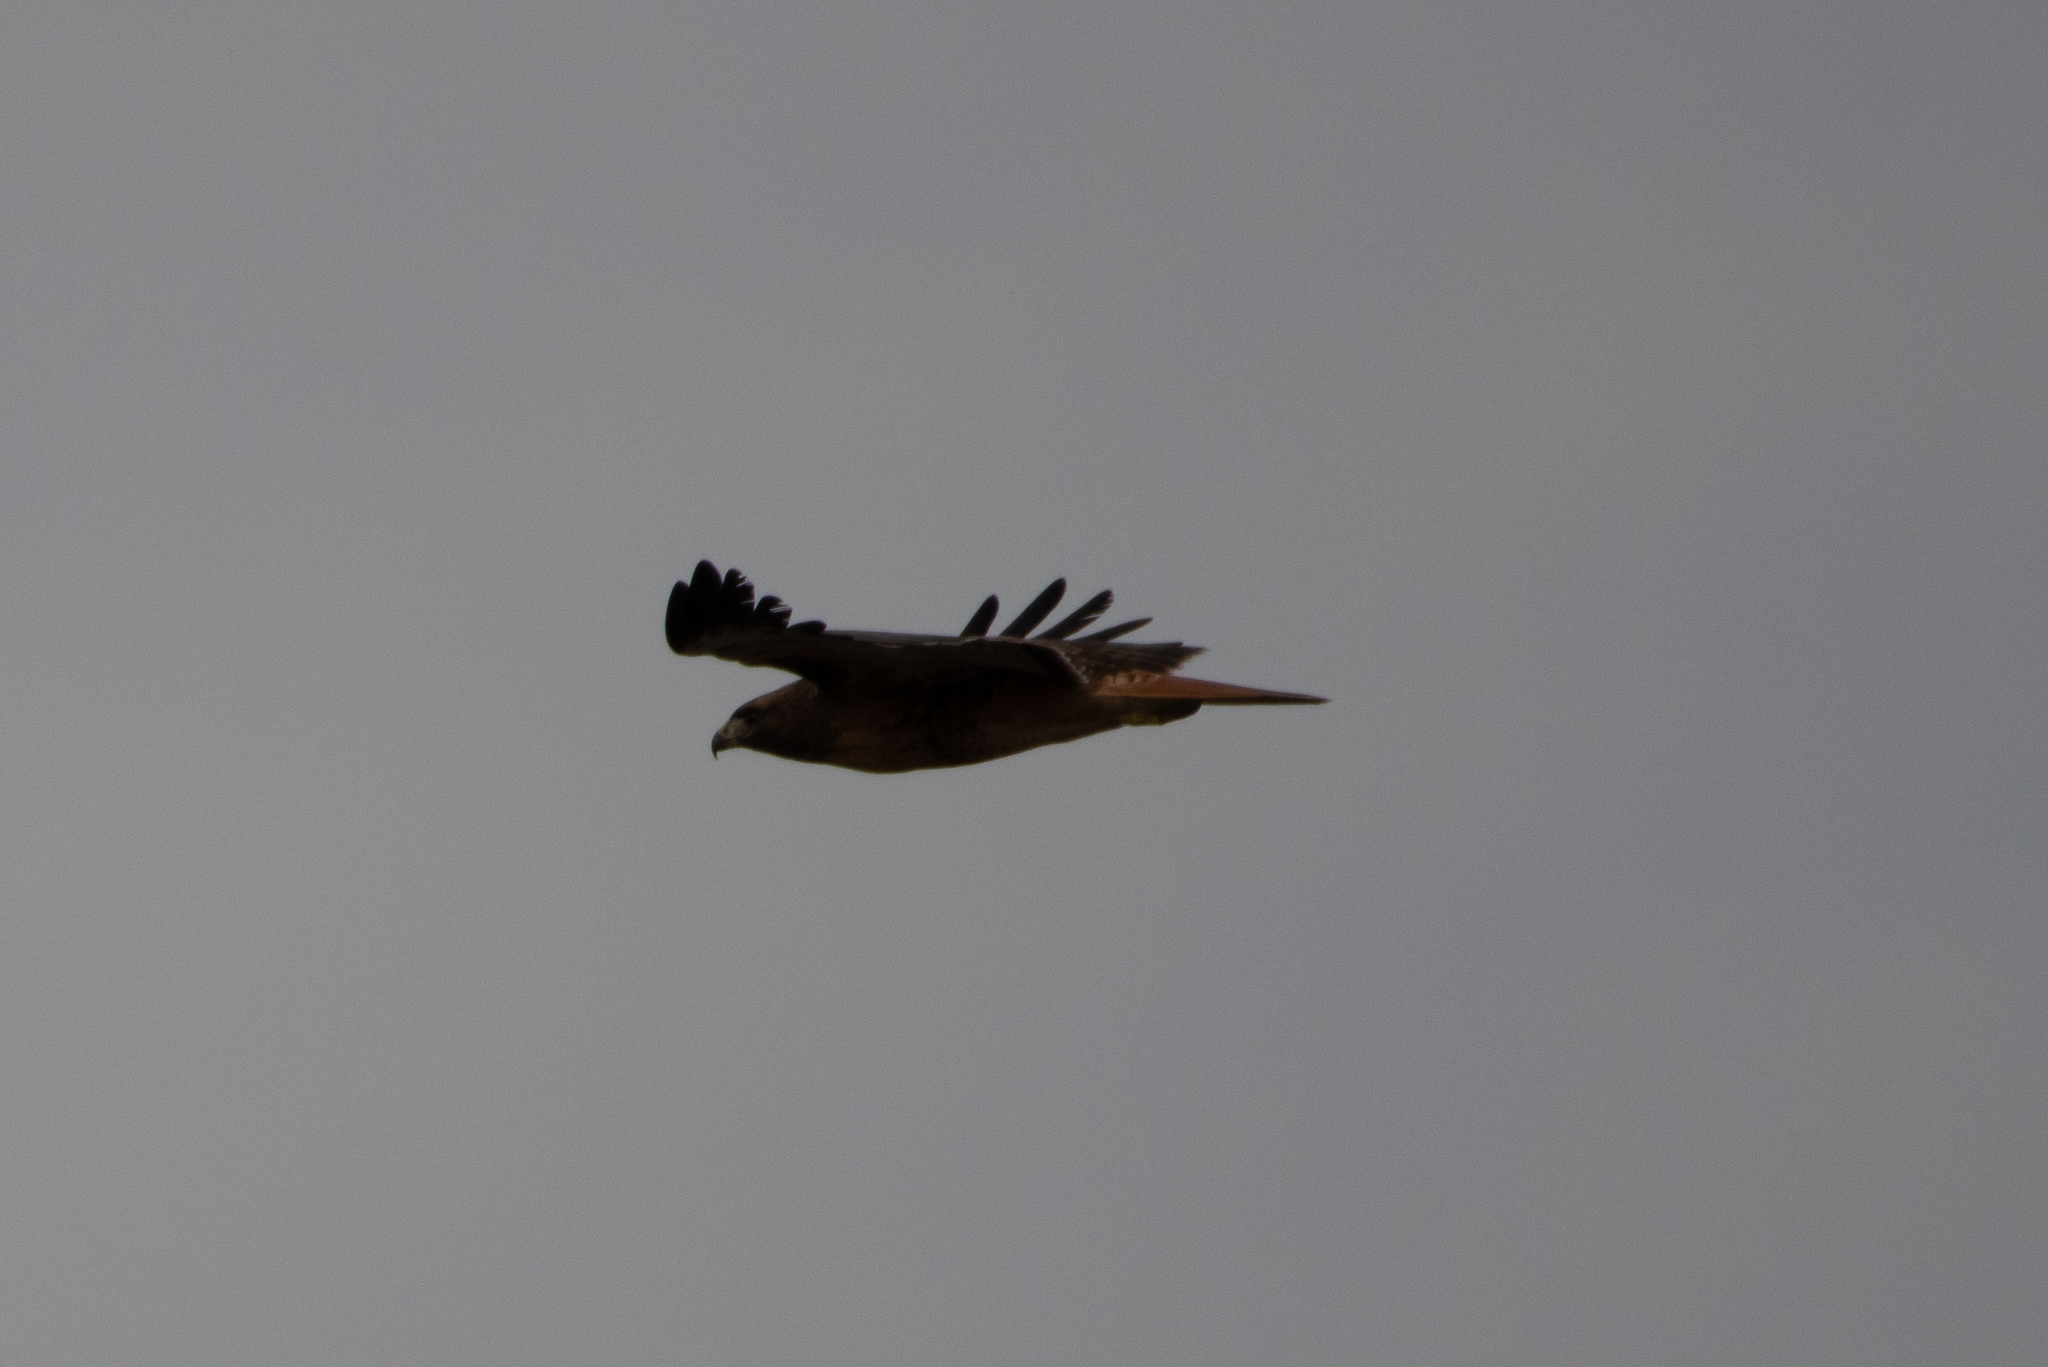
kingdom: Animalia
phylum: Chordata
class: Aves
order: Accipitriformes
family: Accipitridae
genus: Buteo
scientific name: Buteo jamaicensis
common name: Red-tailed hawk
